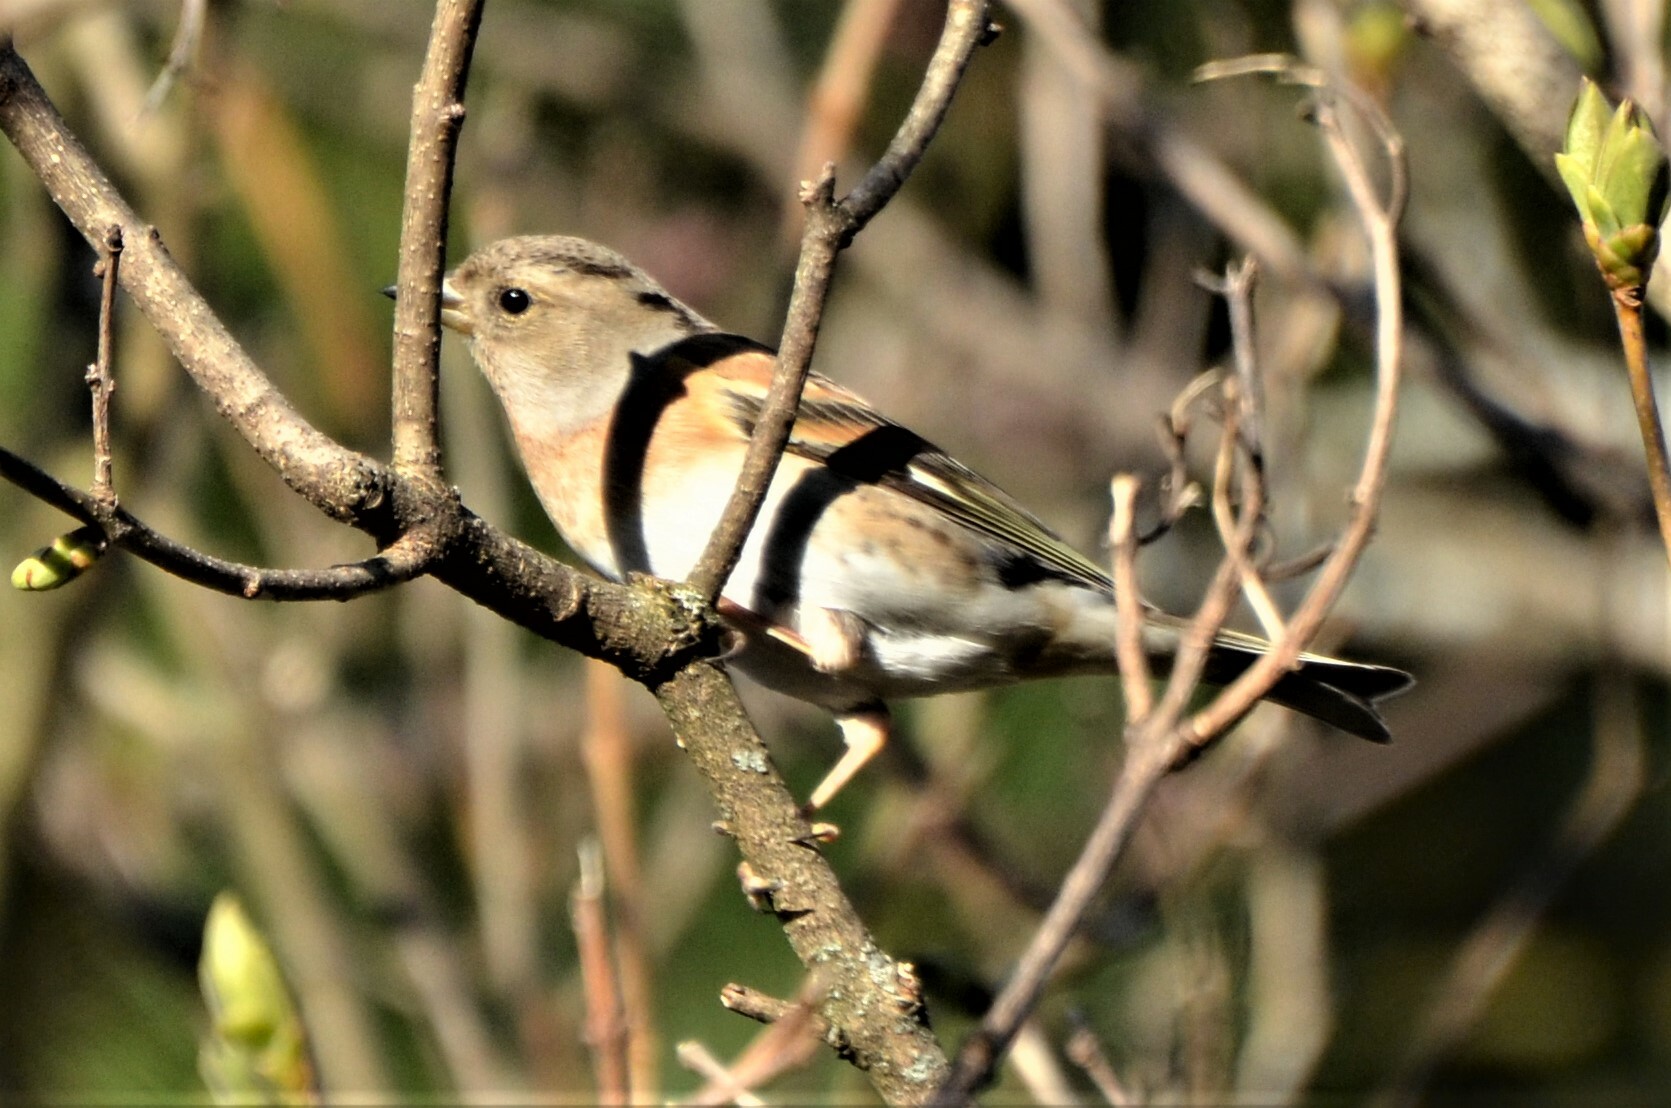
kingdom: Animalia
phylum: Chordata
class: Aves
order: Passeriformes
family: Fringillidae
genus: Fringilla
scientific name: Fringilla montifringilla
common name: Brambling
